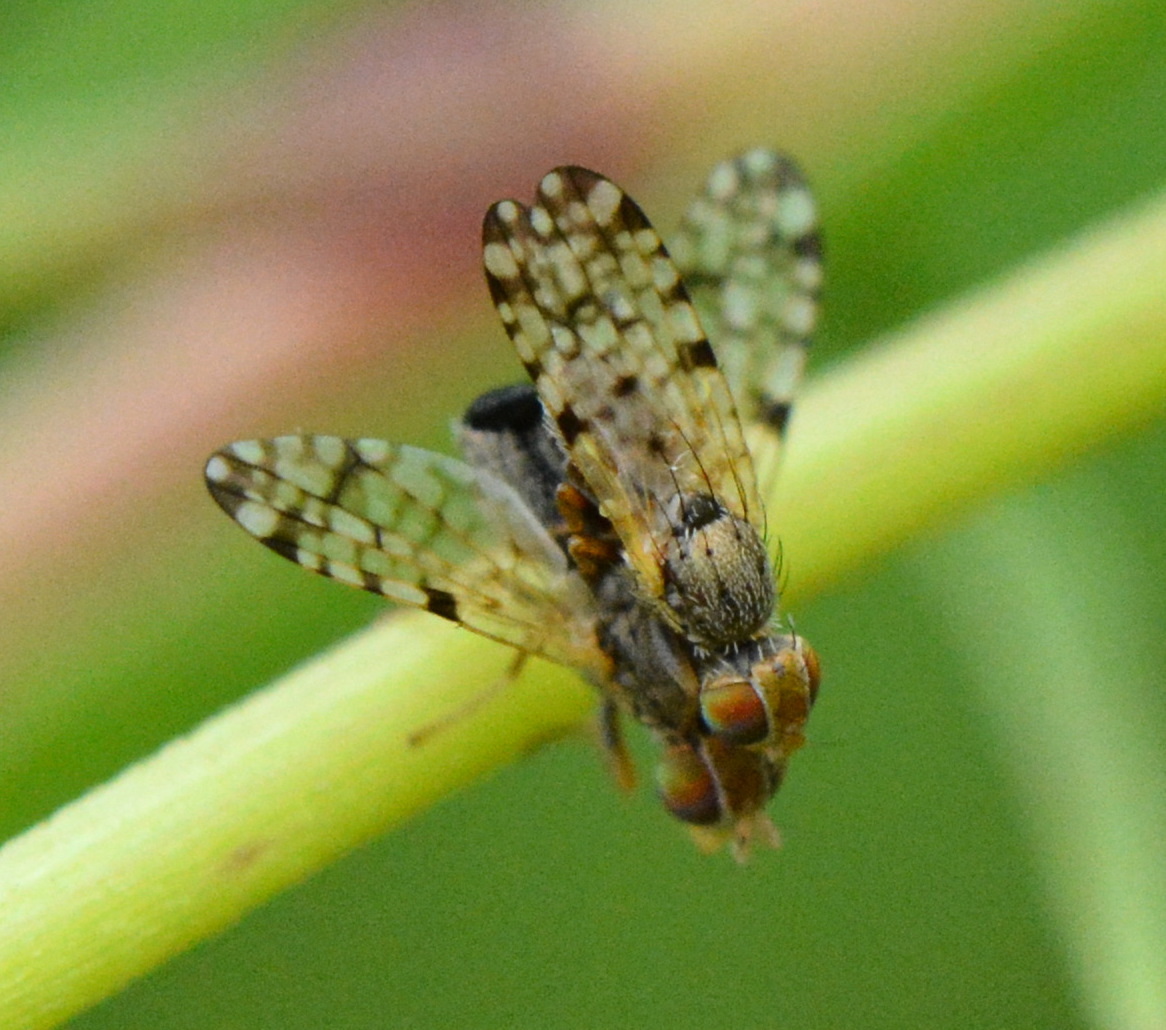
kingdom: Animalia
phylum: Arthropoda
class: Insecta
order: Diptera
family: Tephritidae
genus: Dioxyna
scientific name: Dioxyna picciola
